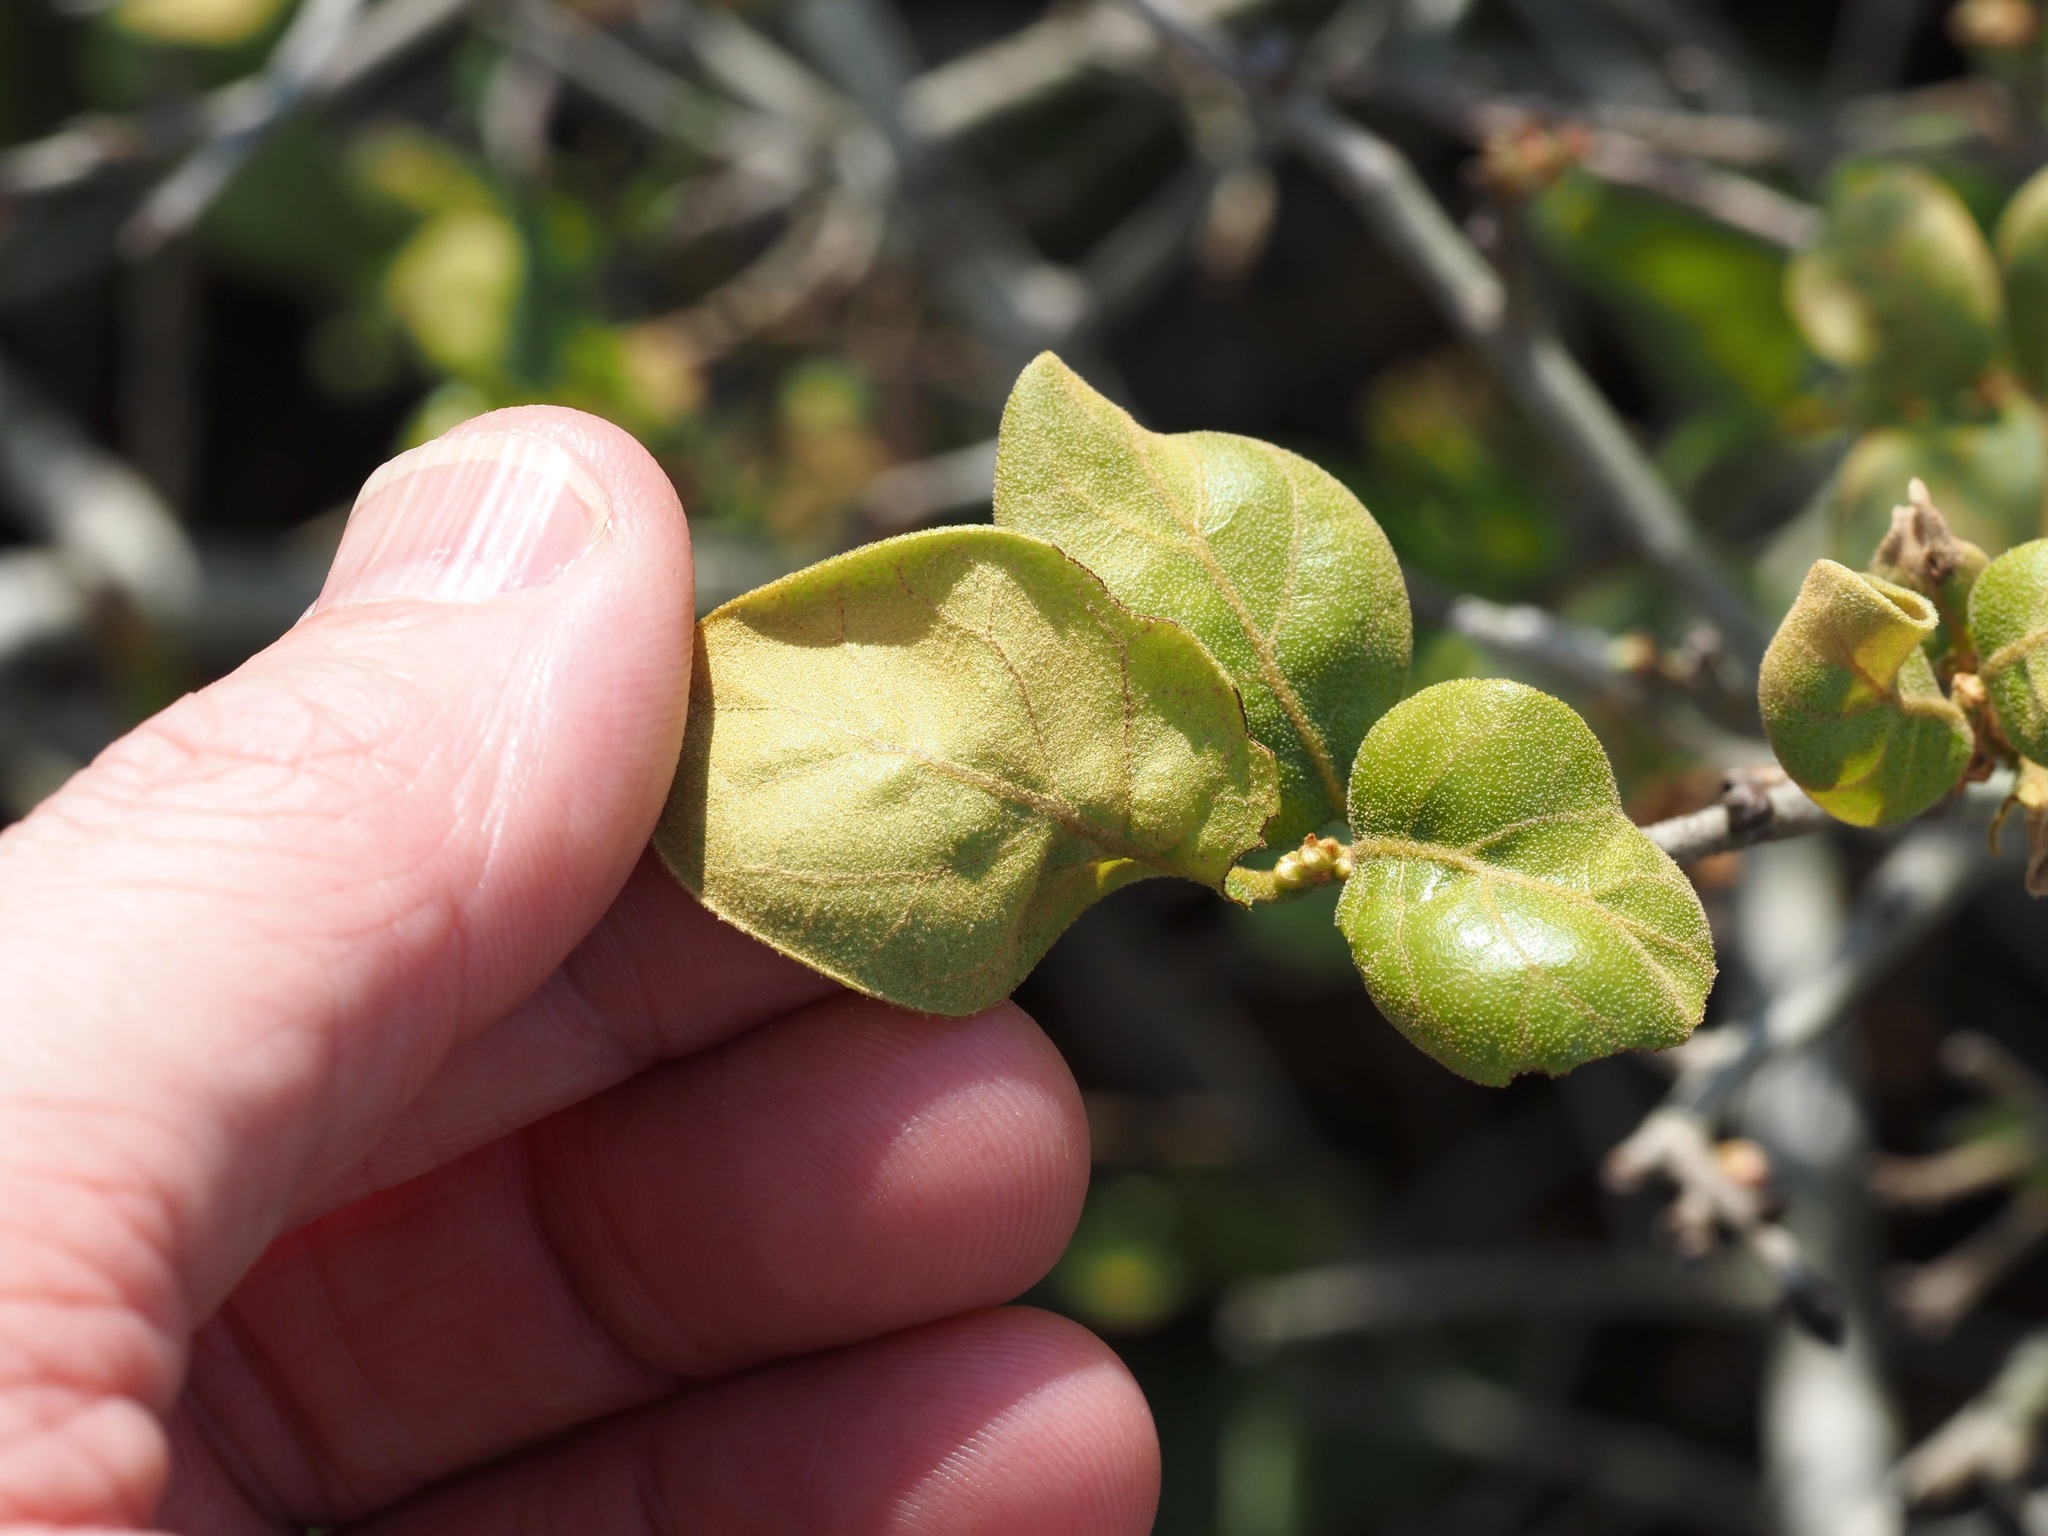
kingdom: Plantae
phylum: Tracheophyta
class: Magnoliopsida
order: Fagales
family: Fagaceae
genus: Quercus
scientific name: Quercus myrtifolia
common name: Myrtle oak
